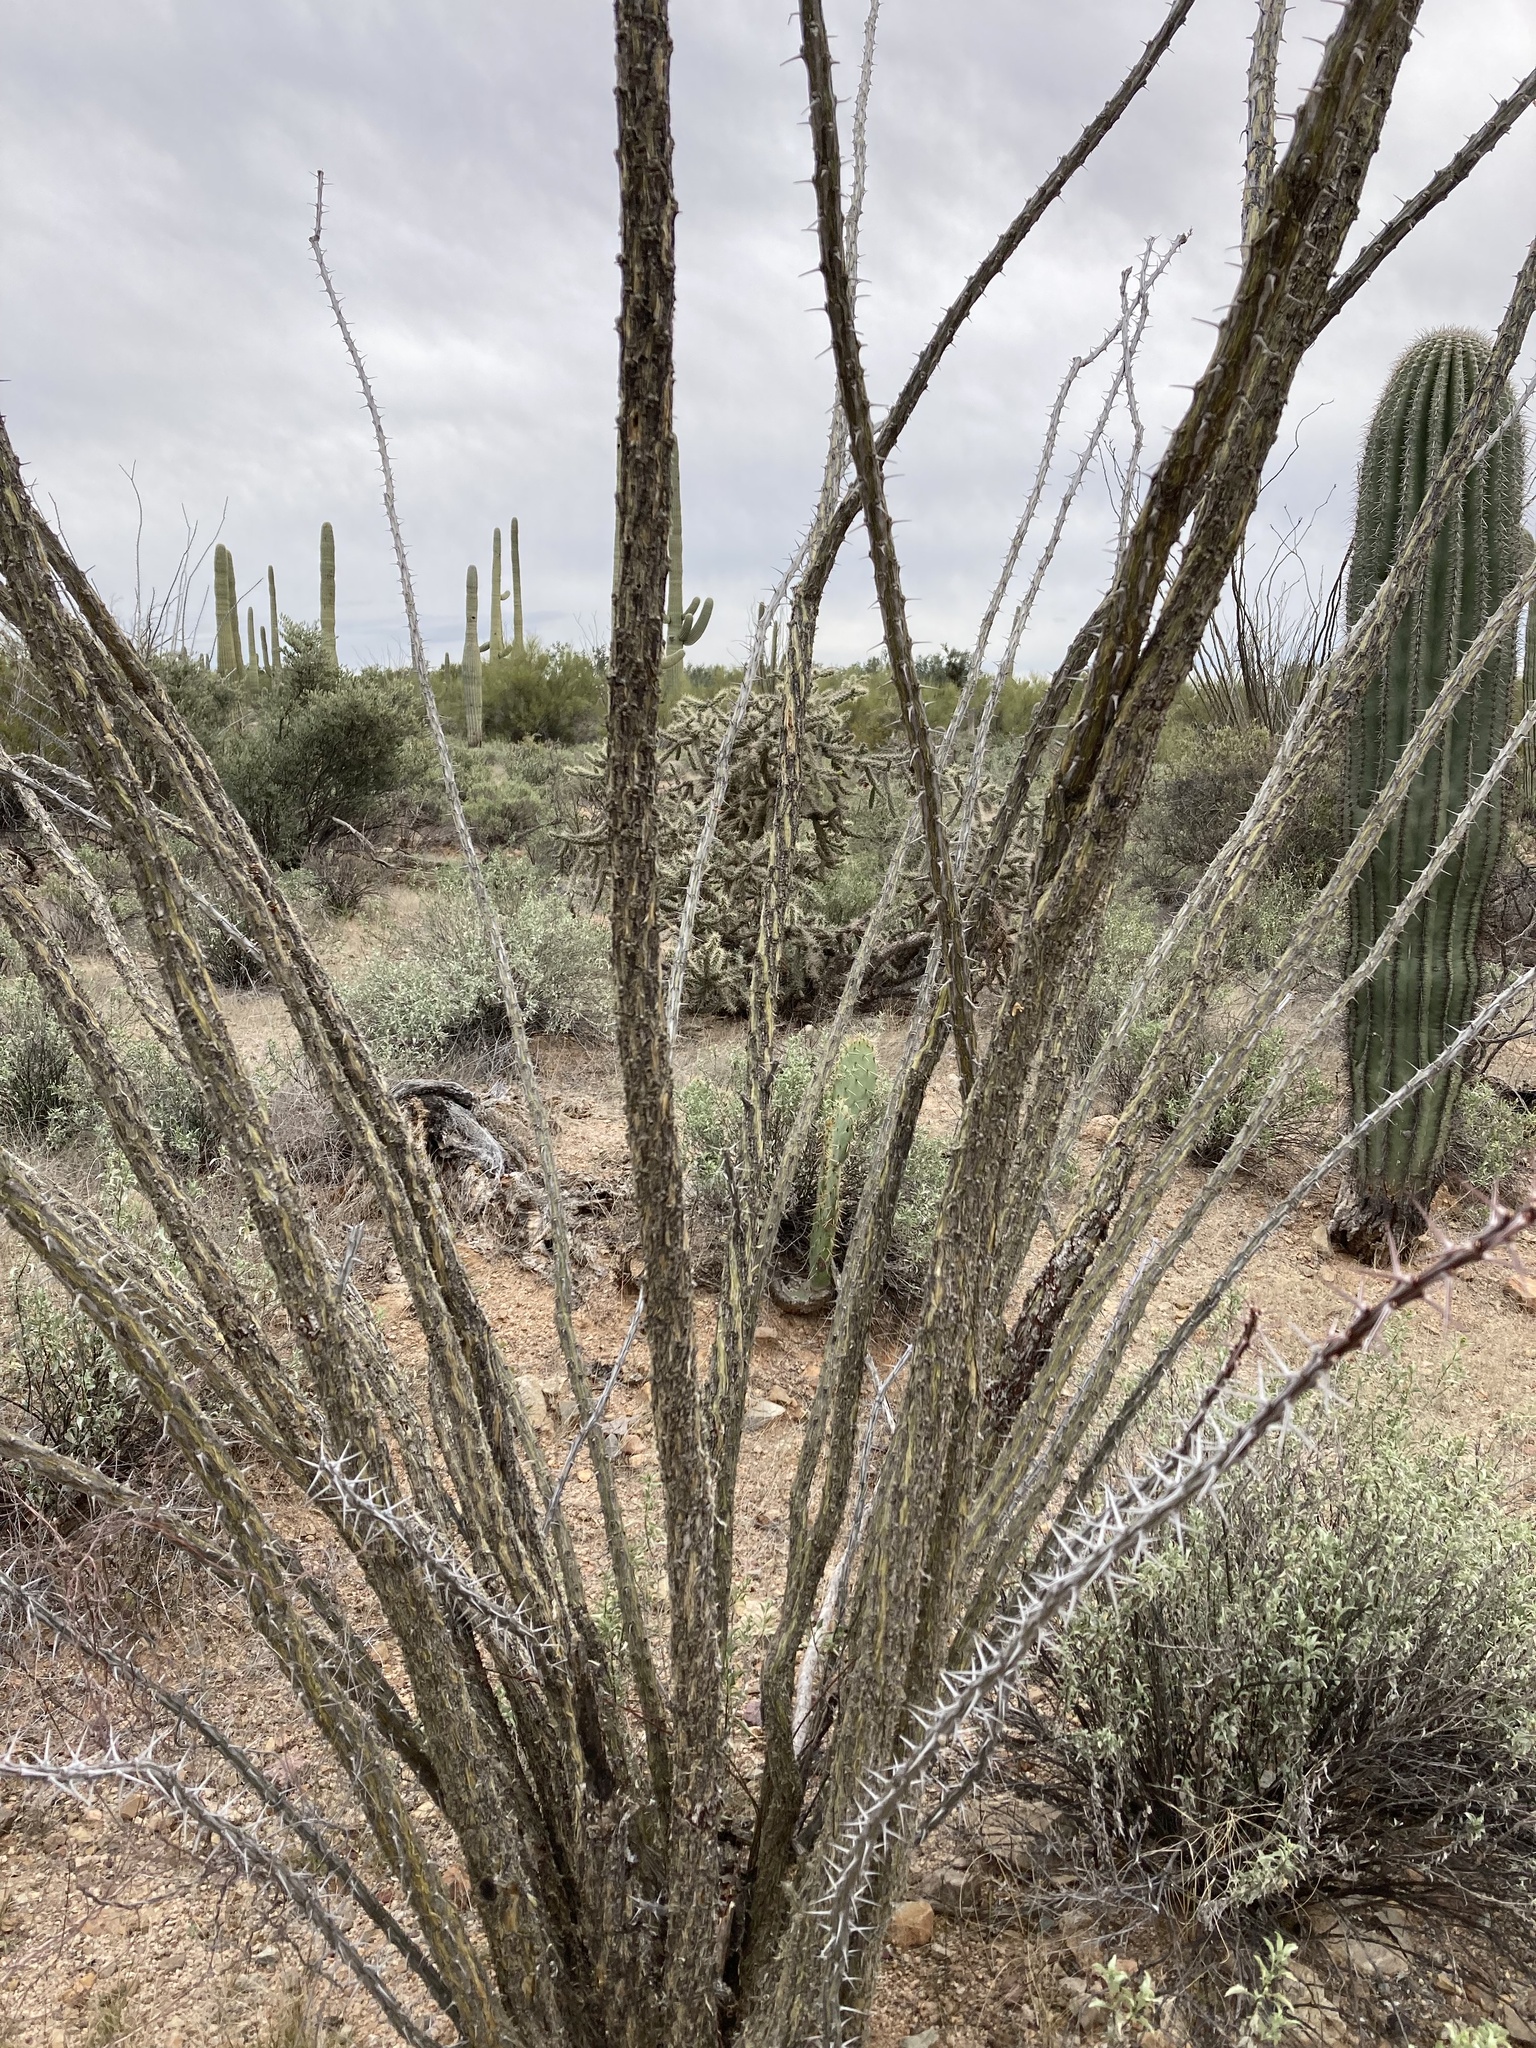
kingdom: Plantae
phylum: Tracheophyta
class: Magnoliopsida
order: Ericales
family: Fouquieriaceae
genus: Fouquieria
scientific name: Fouquieria splendens
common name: Vine-cactus
